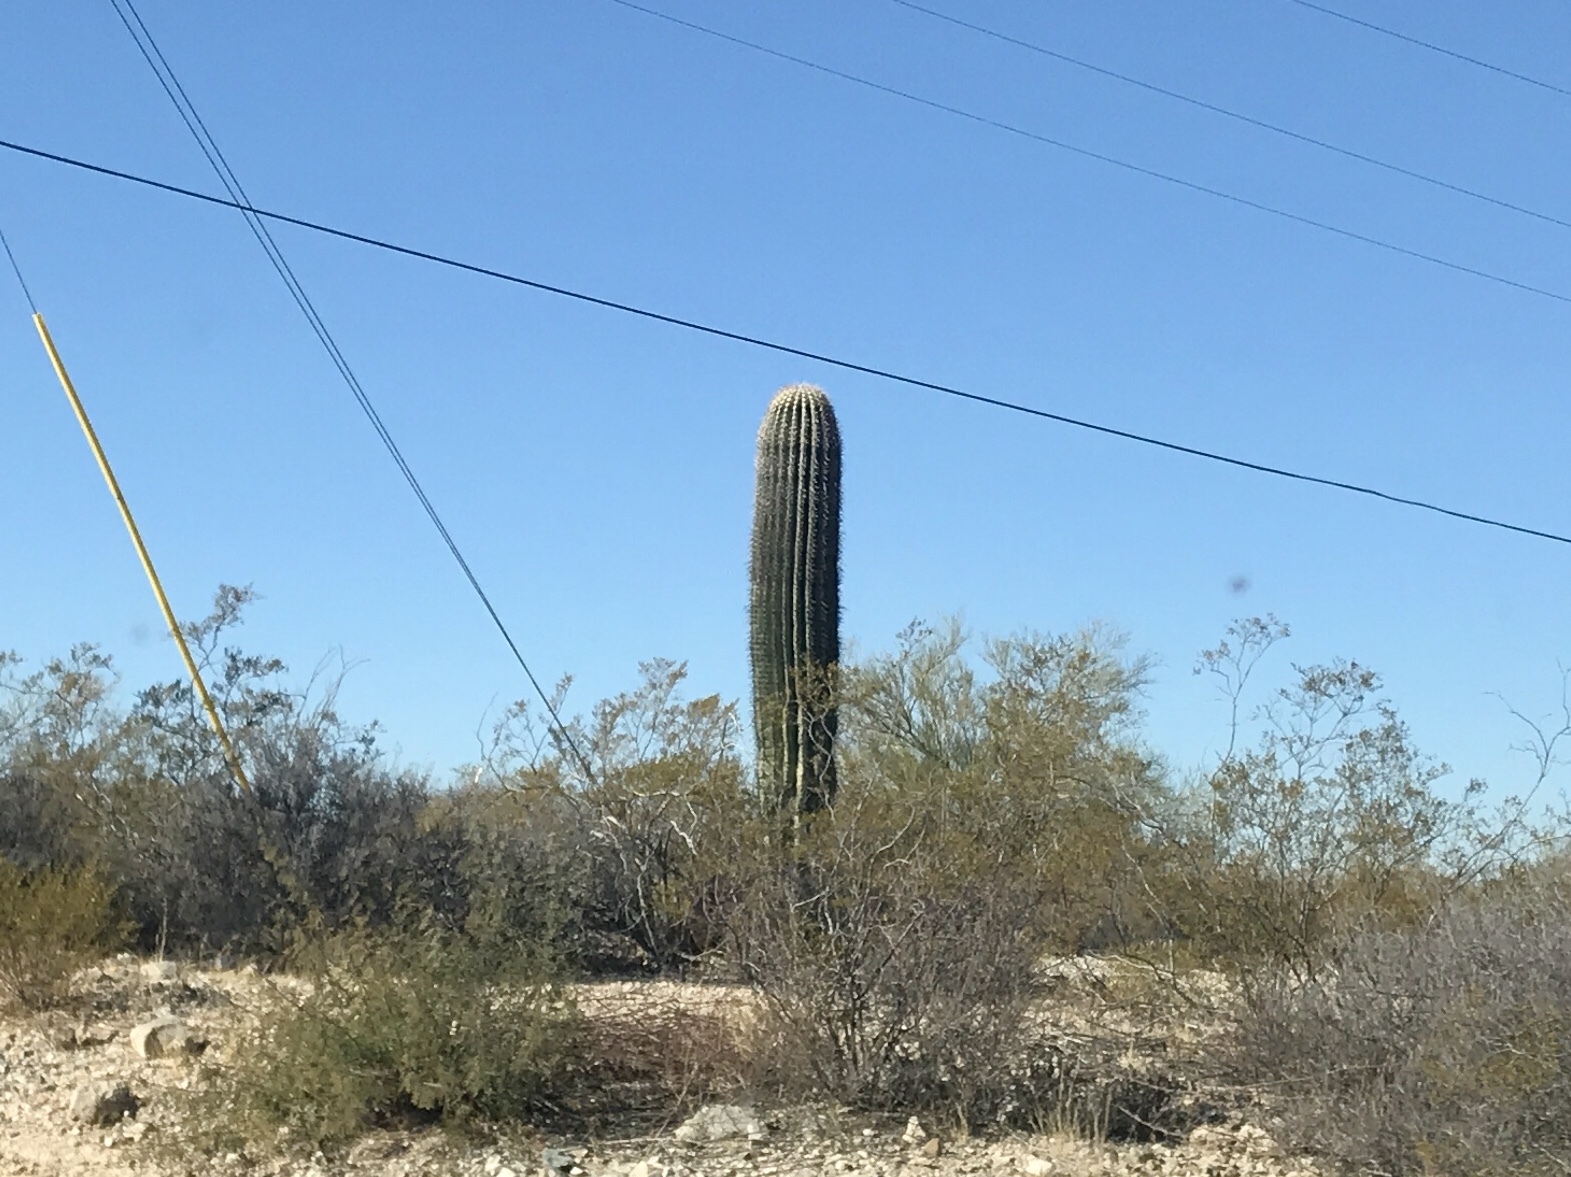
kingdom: Plantae
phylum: Tracheophyta
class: Magnoliopsida
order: Caryophyllales
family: Cactaceae
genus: Carnegiea
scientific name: Carnegiea gigantea
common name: Saguaro
